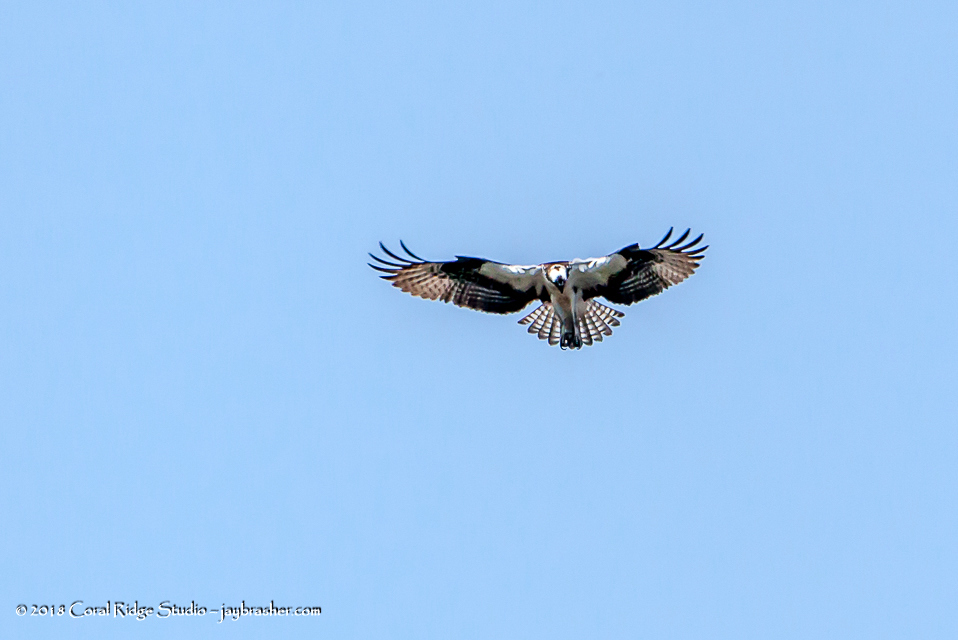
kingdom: Animalia
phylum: Chordata
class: Aves
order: Accipitriformes
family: Pandionidae
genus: Pandion
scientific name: Pandion haliaetus
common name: Osprey
